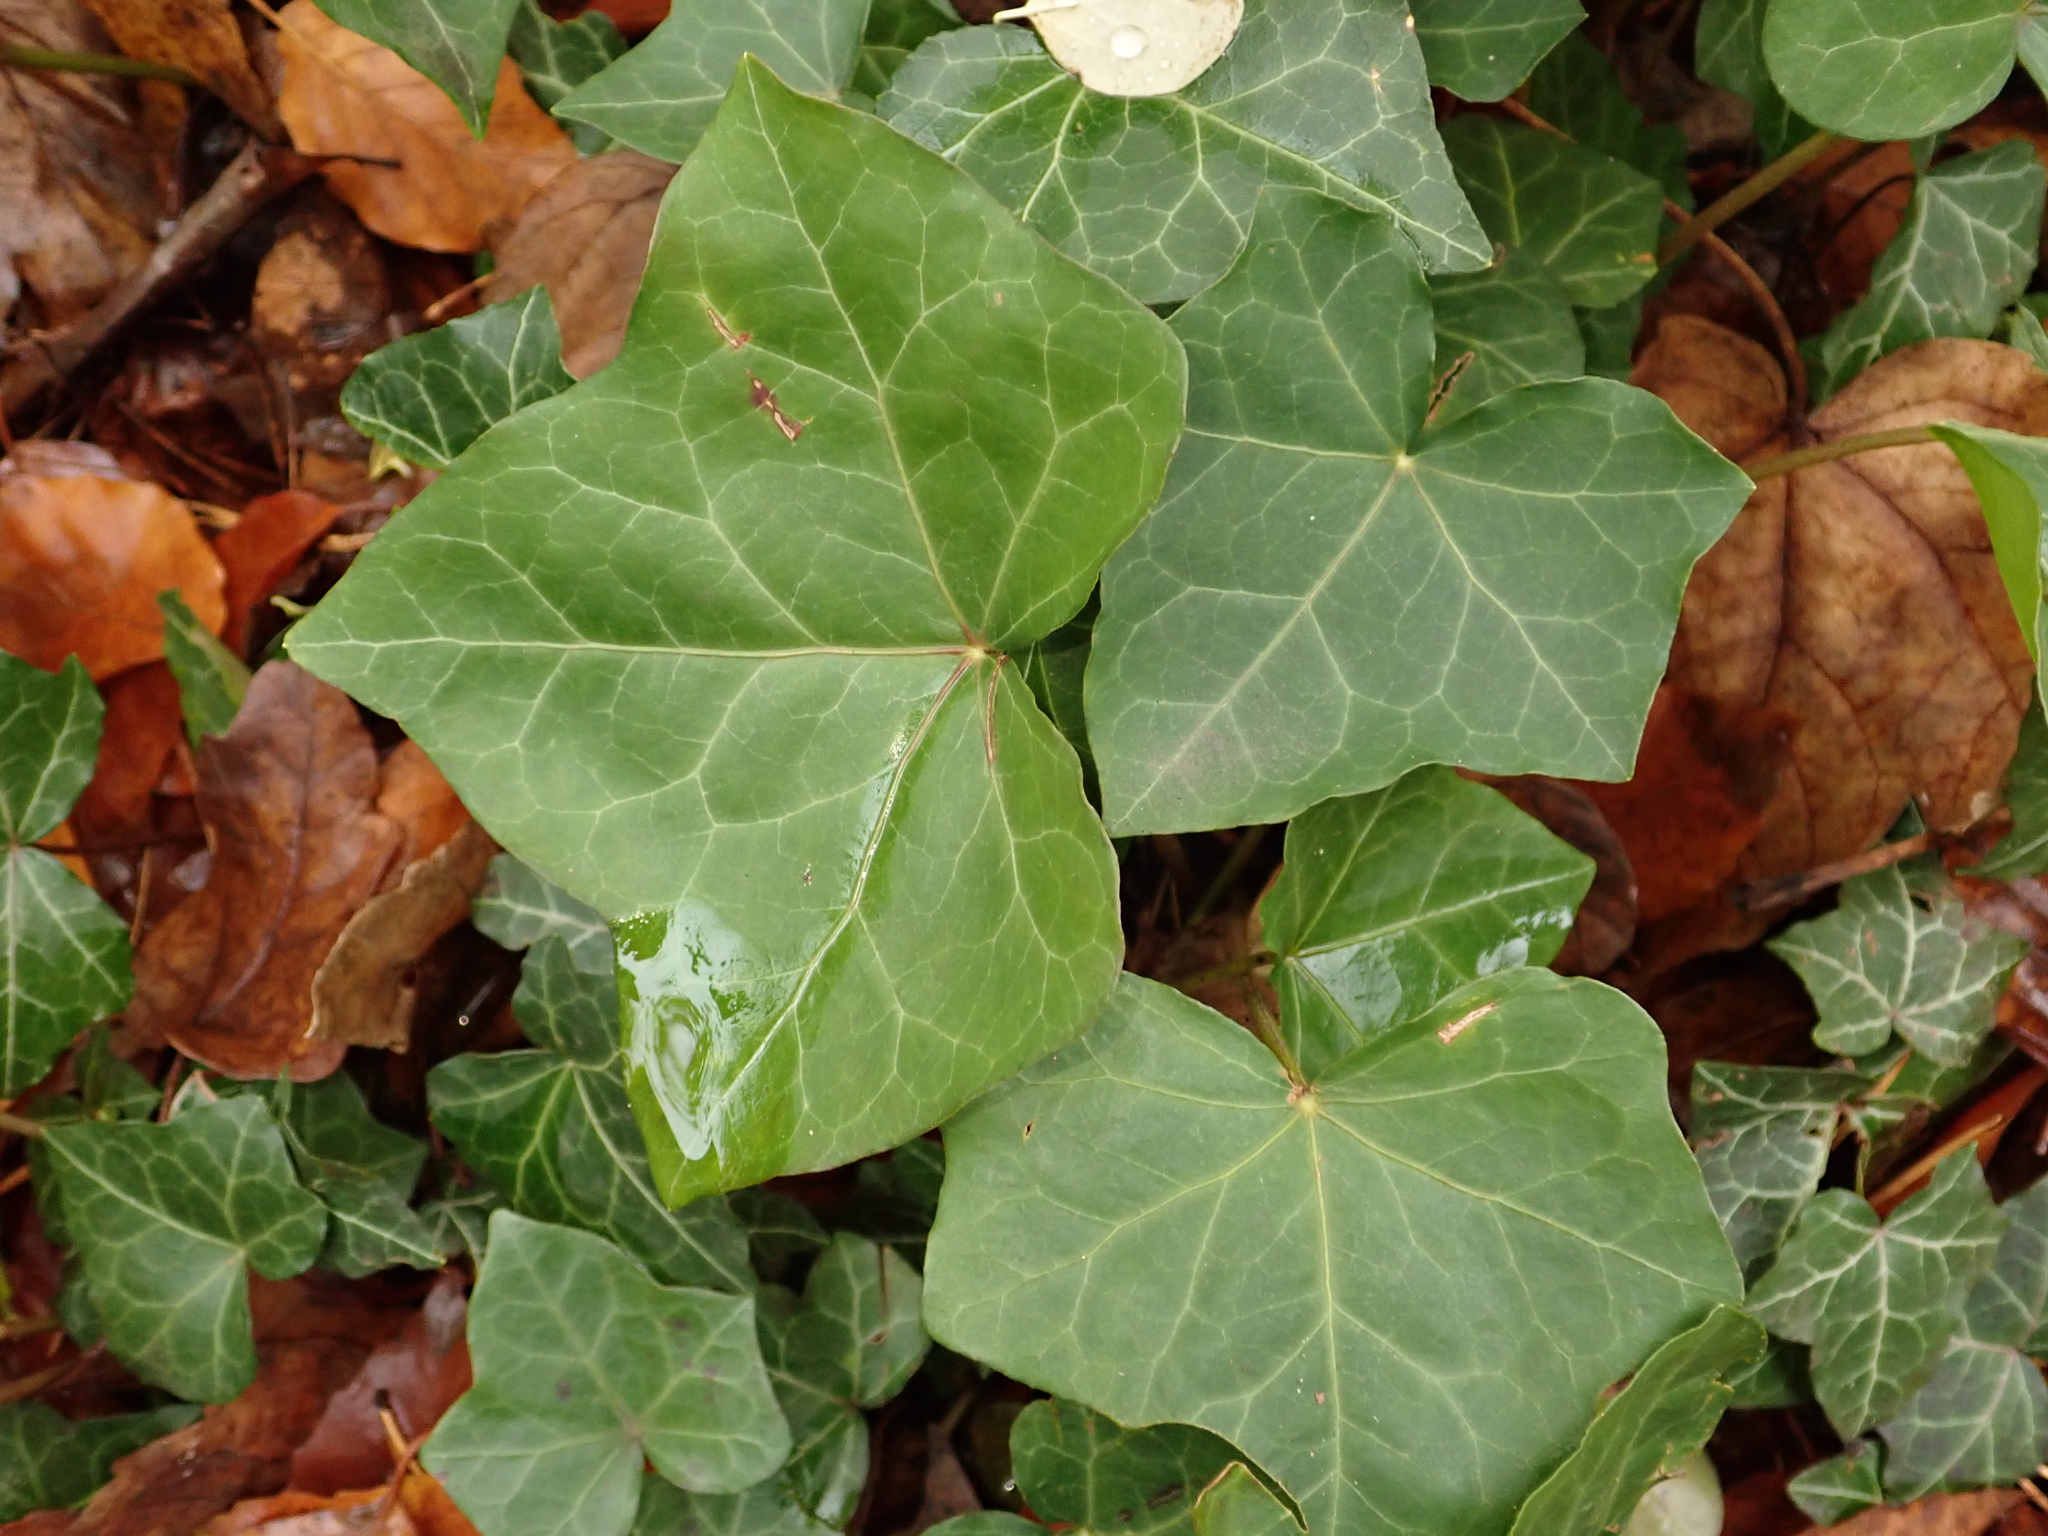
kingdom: Plantae
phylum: Tracheophyta
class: Magnoliopsida
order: Apiales
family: Araliaceae
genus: Hedera
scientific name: Hedera helix
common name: Ivy
